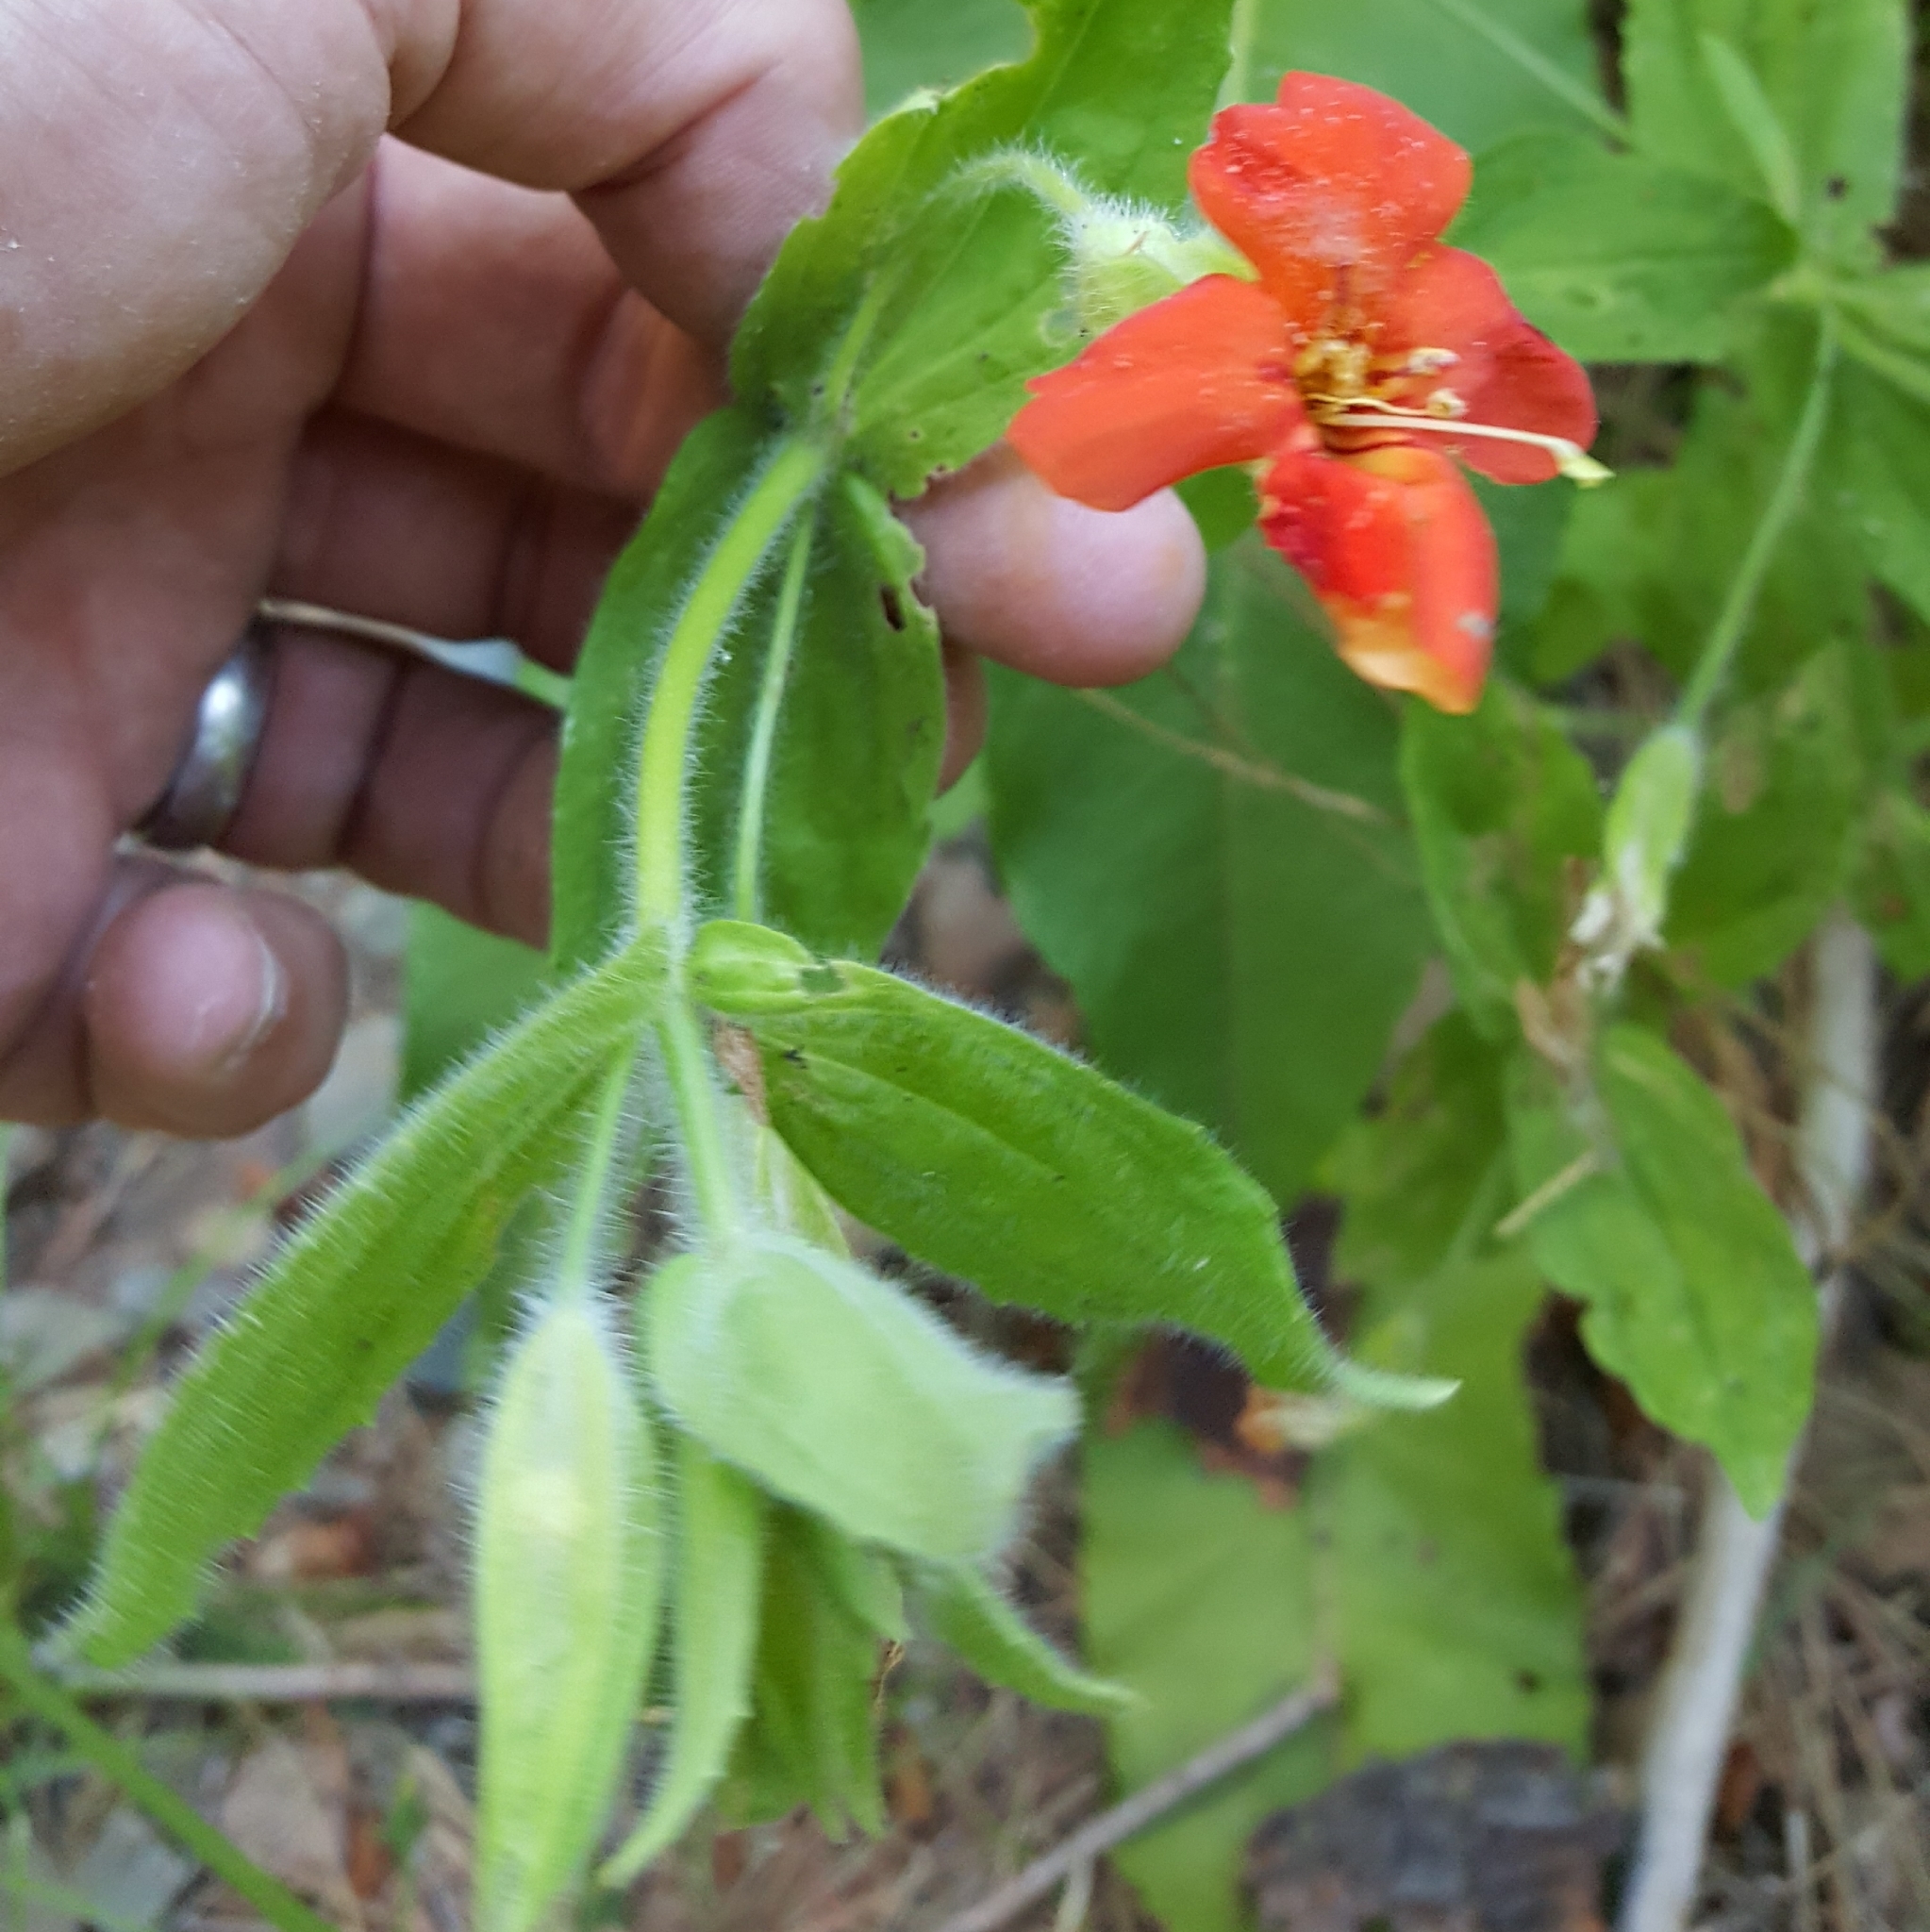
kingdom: Plantae
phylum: Tracheophyta
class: Magnoliopsida
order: Lamiales
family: Phrymaceae
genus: Erythranthe
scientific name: Erythranthe cardinalis
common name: Scarlet monkey-flower
